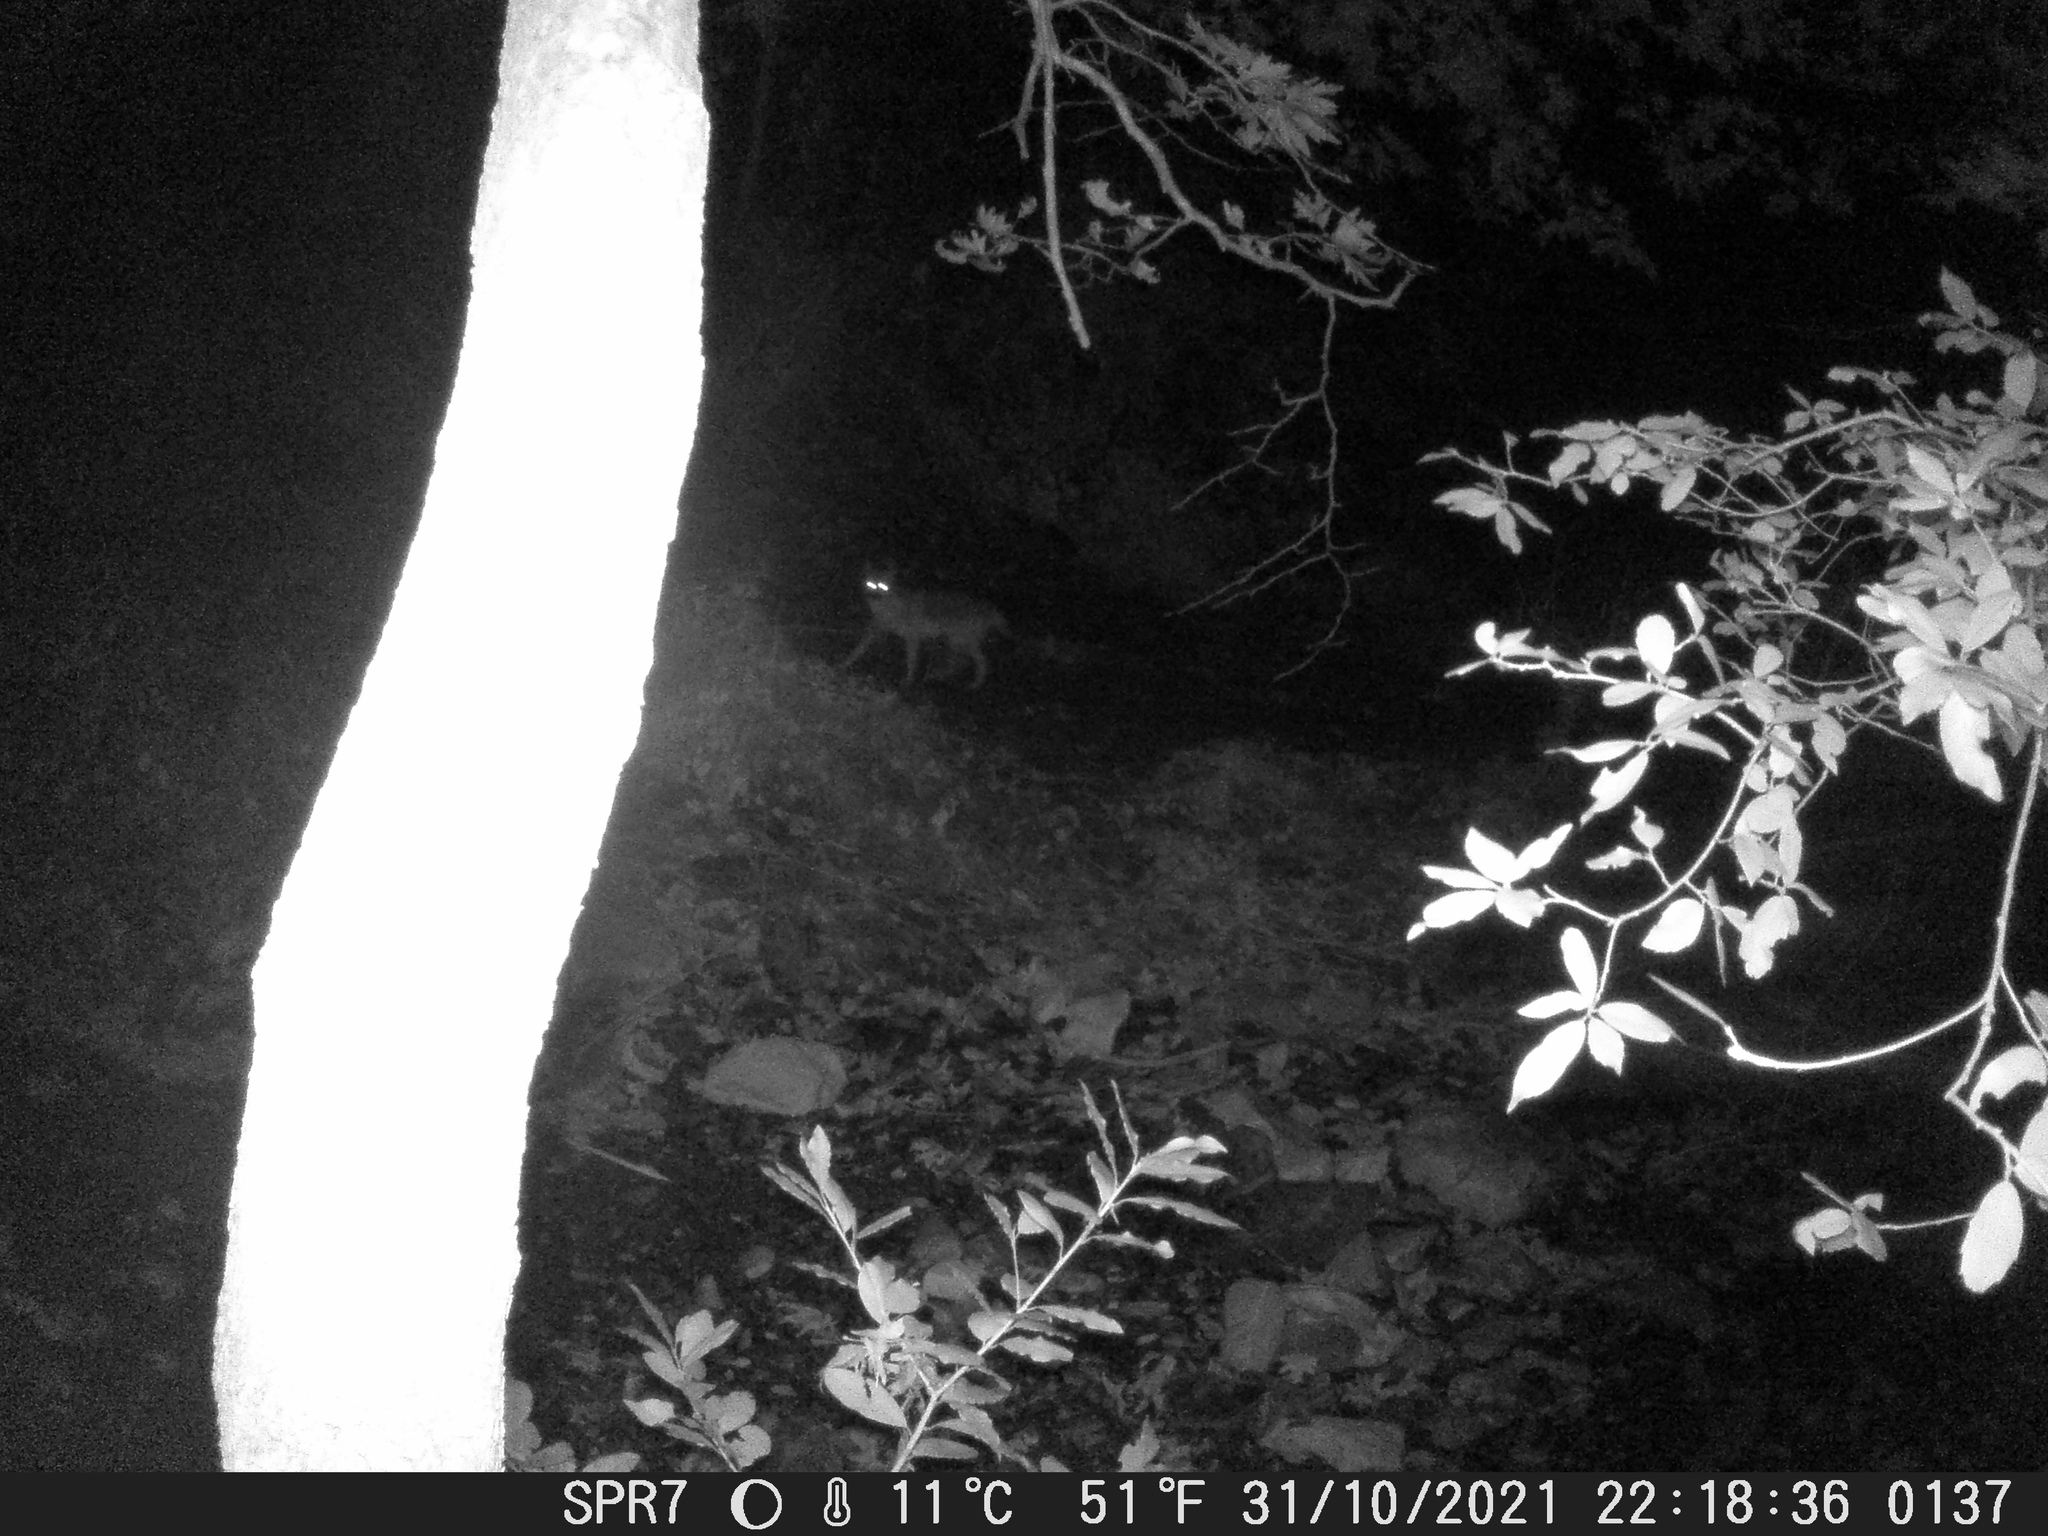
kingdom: Animalia
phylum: Chordata
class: Mammalia
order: Carnivora
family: Canidae
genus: Canis
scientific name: Canis aureus
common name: Golden jackal
